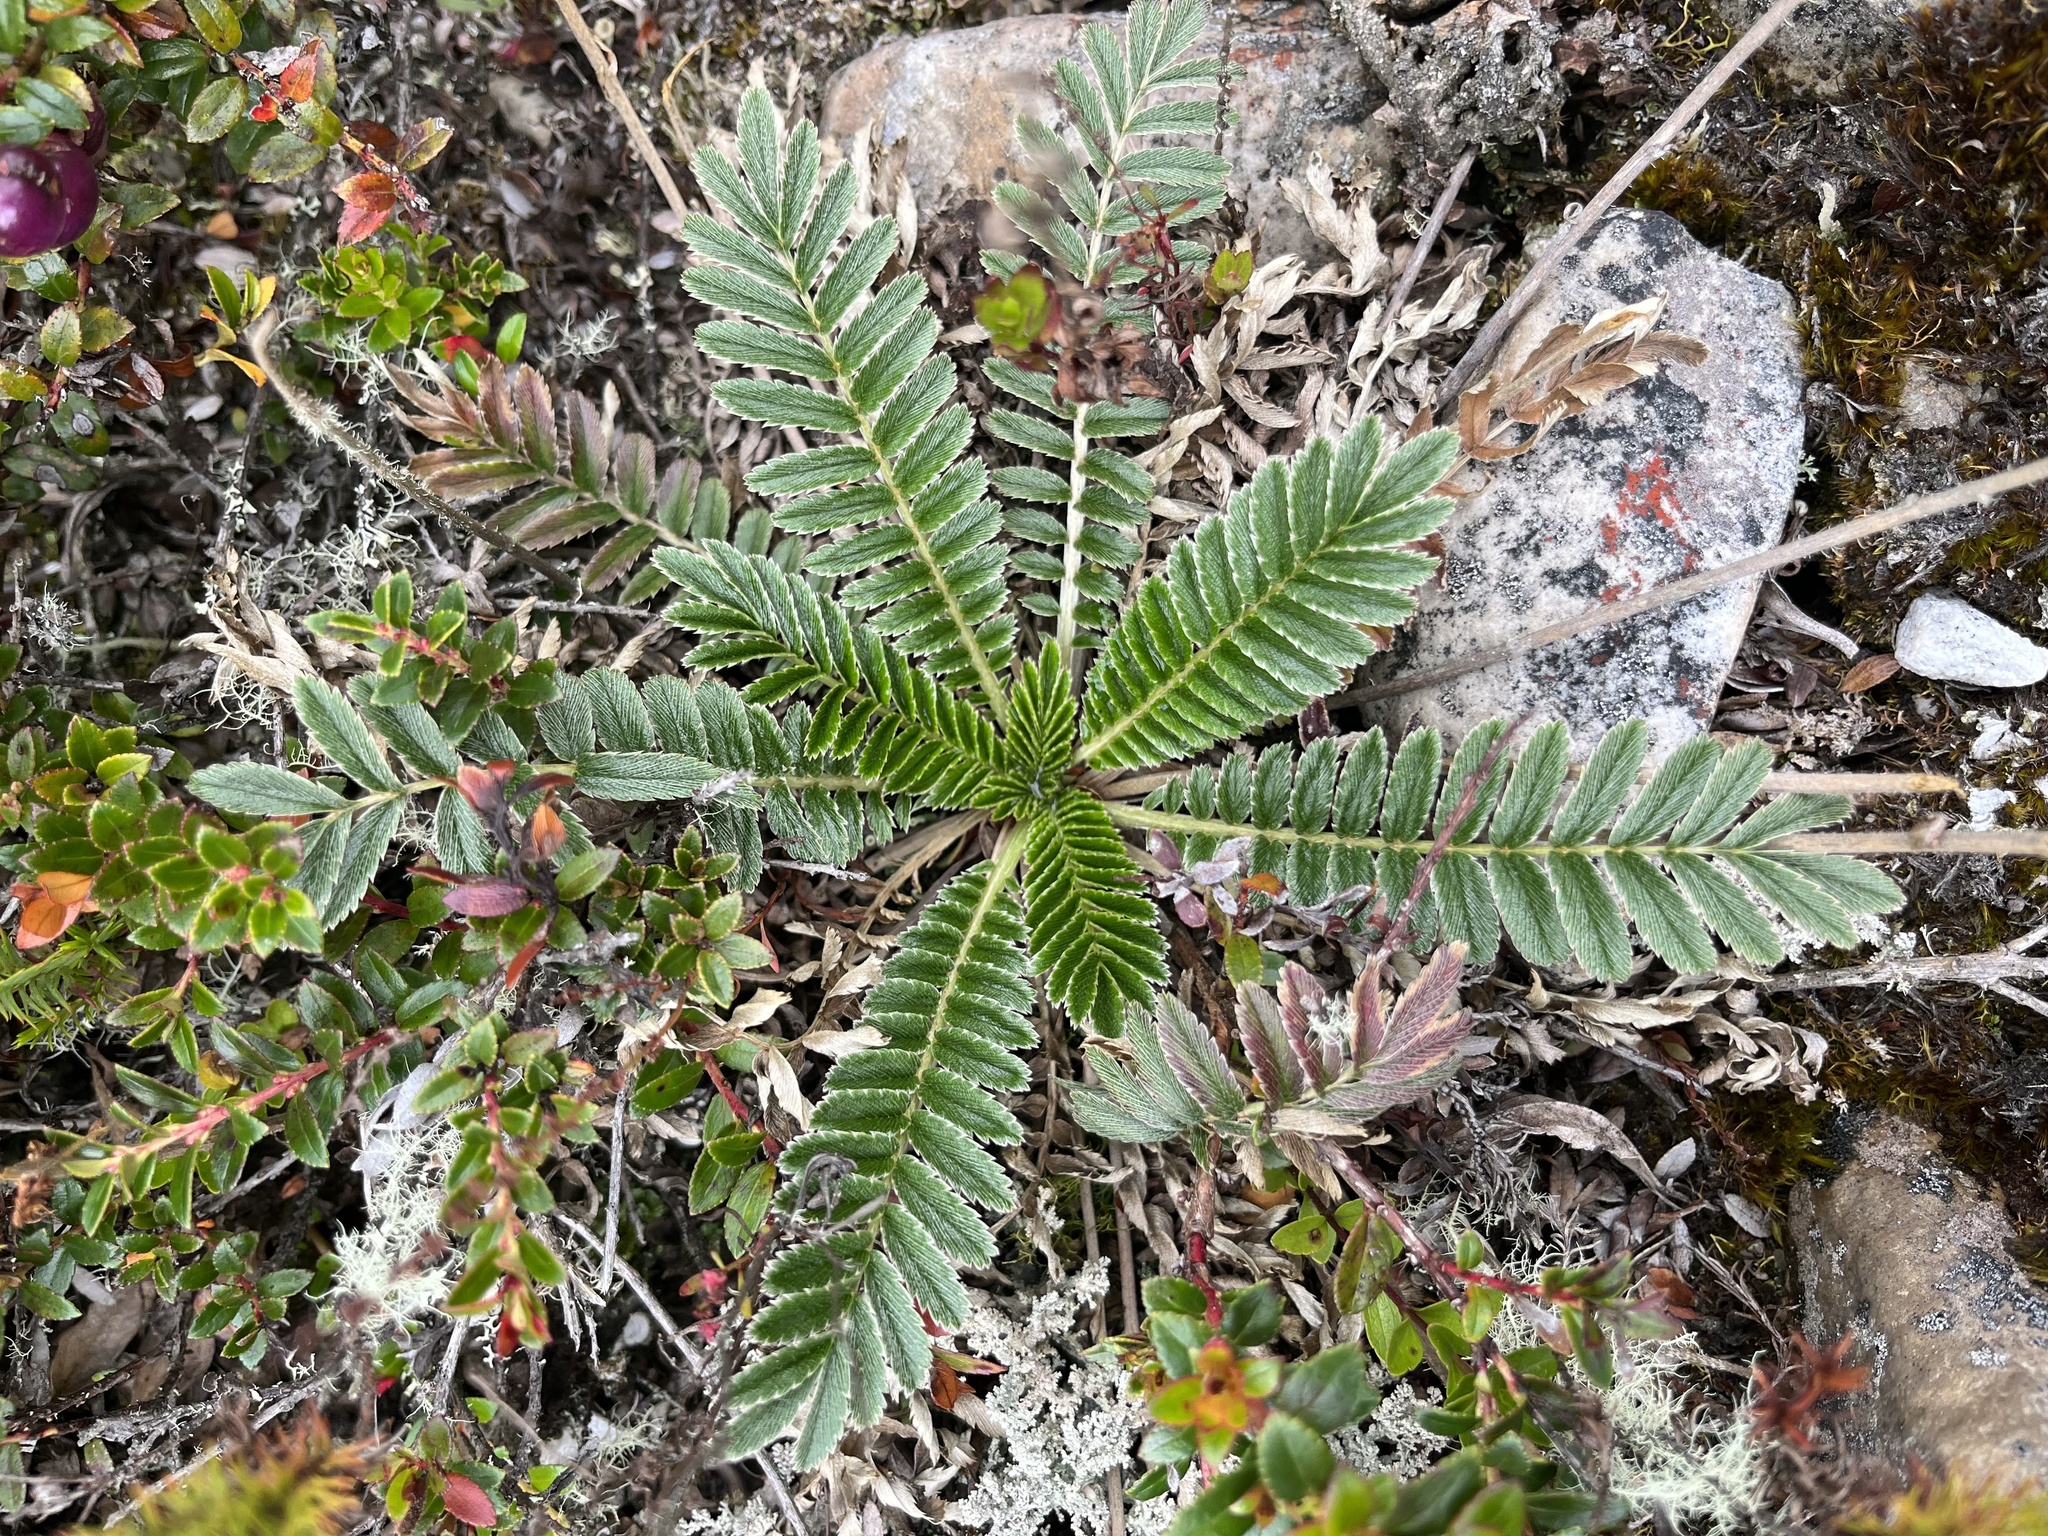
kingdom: Plantae
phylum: Tracheophyta
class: Magnoliopsida
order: Rosales
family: Rosaceae
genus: Acaena
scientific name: Acaena cylindristachya
